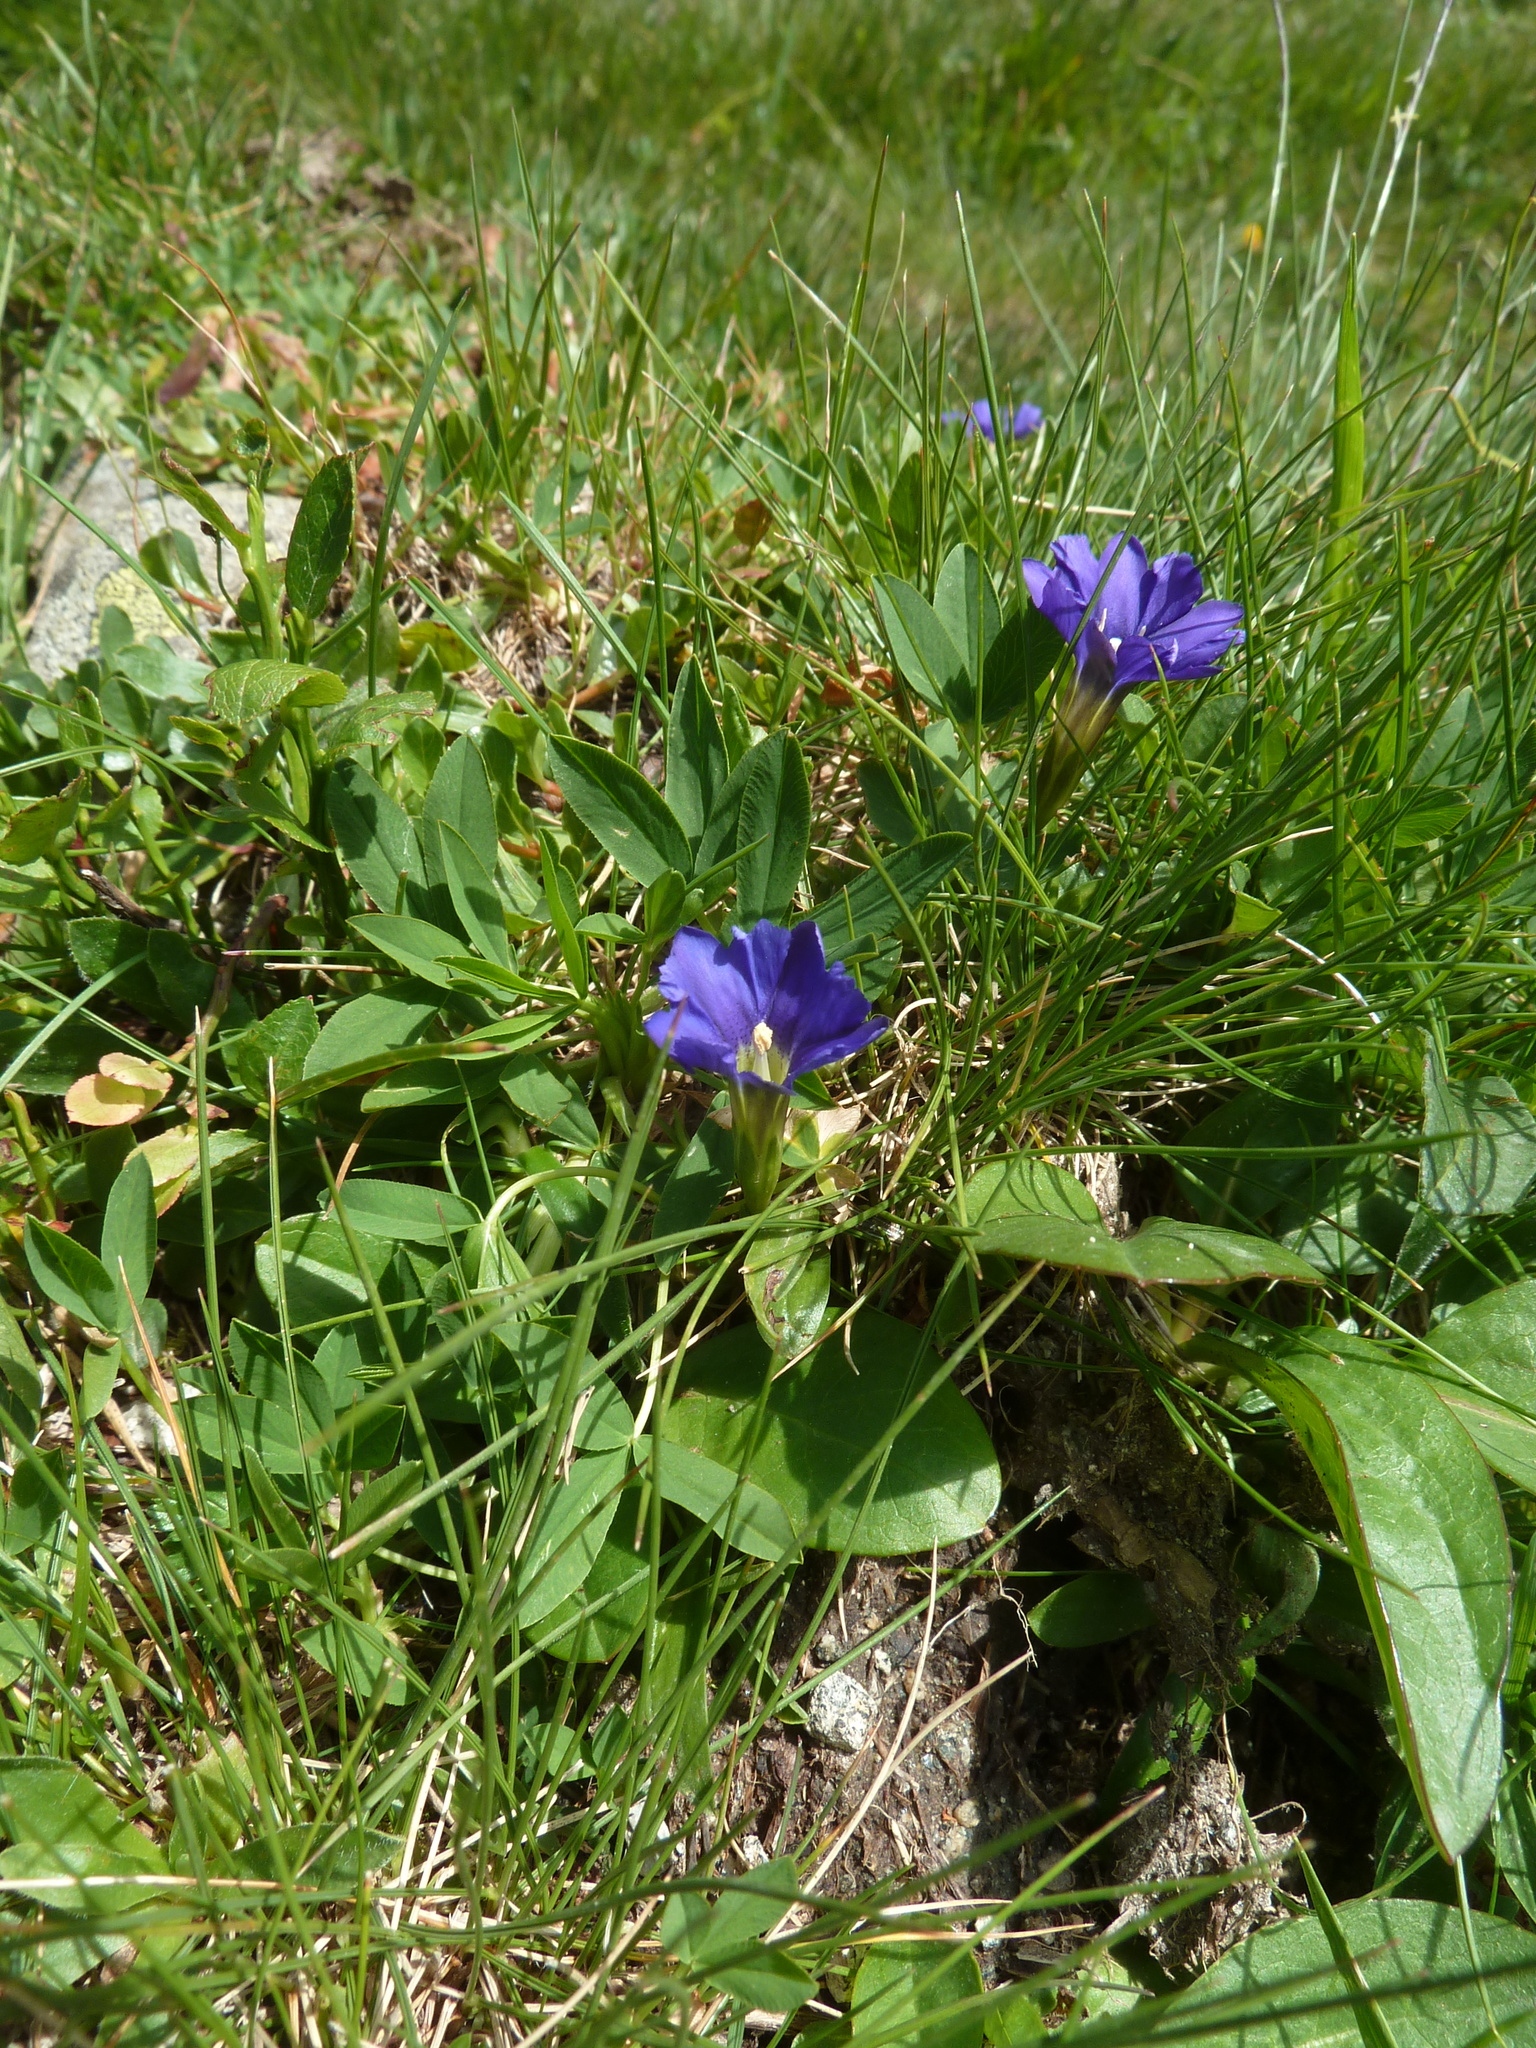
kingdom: Plantae
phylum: Tracheophyta
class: Magnoliopsida
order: Gentianales
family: Gentianaceae
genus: Gentiana
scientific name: Gentiana pyrenaica
